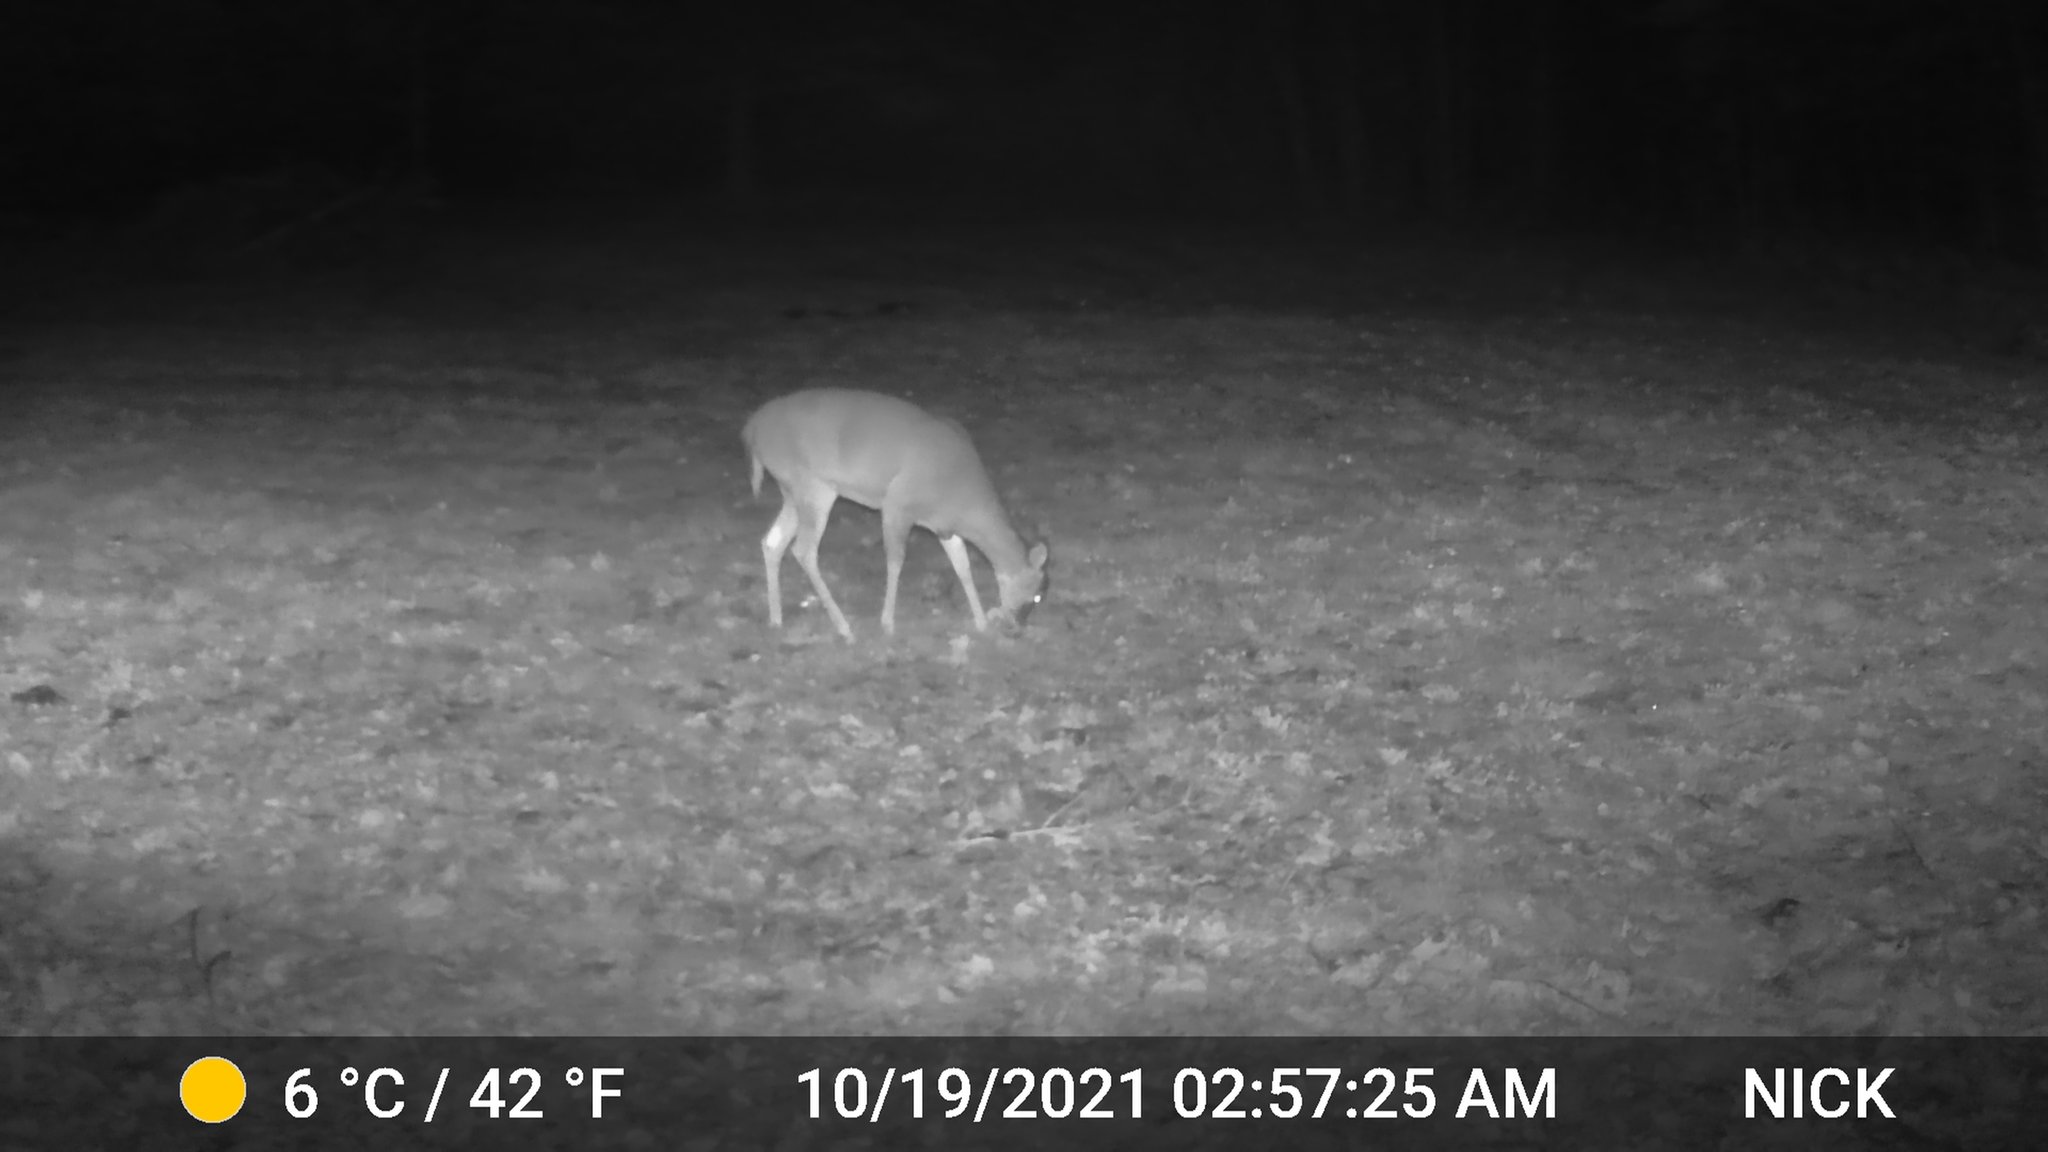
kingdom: Animalia
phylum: Chordata
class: Mammalia
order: Artiodactyla
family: Cervidae
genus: Odocoileus
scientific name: Odocoileus virginianus
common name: White-tailed deer
